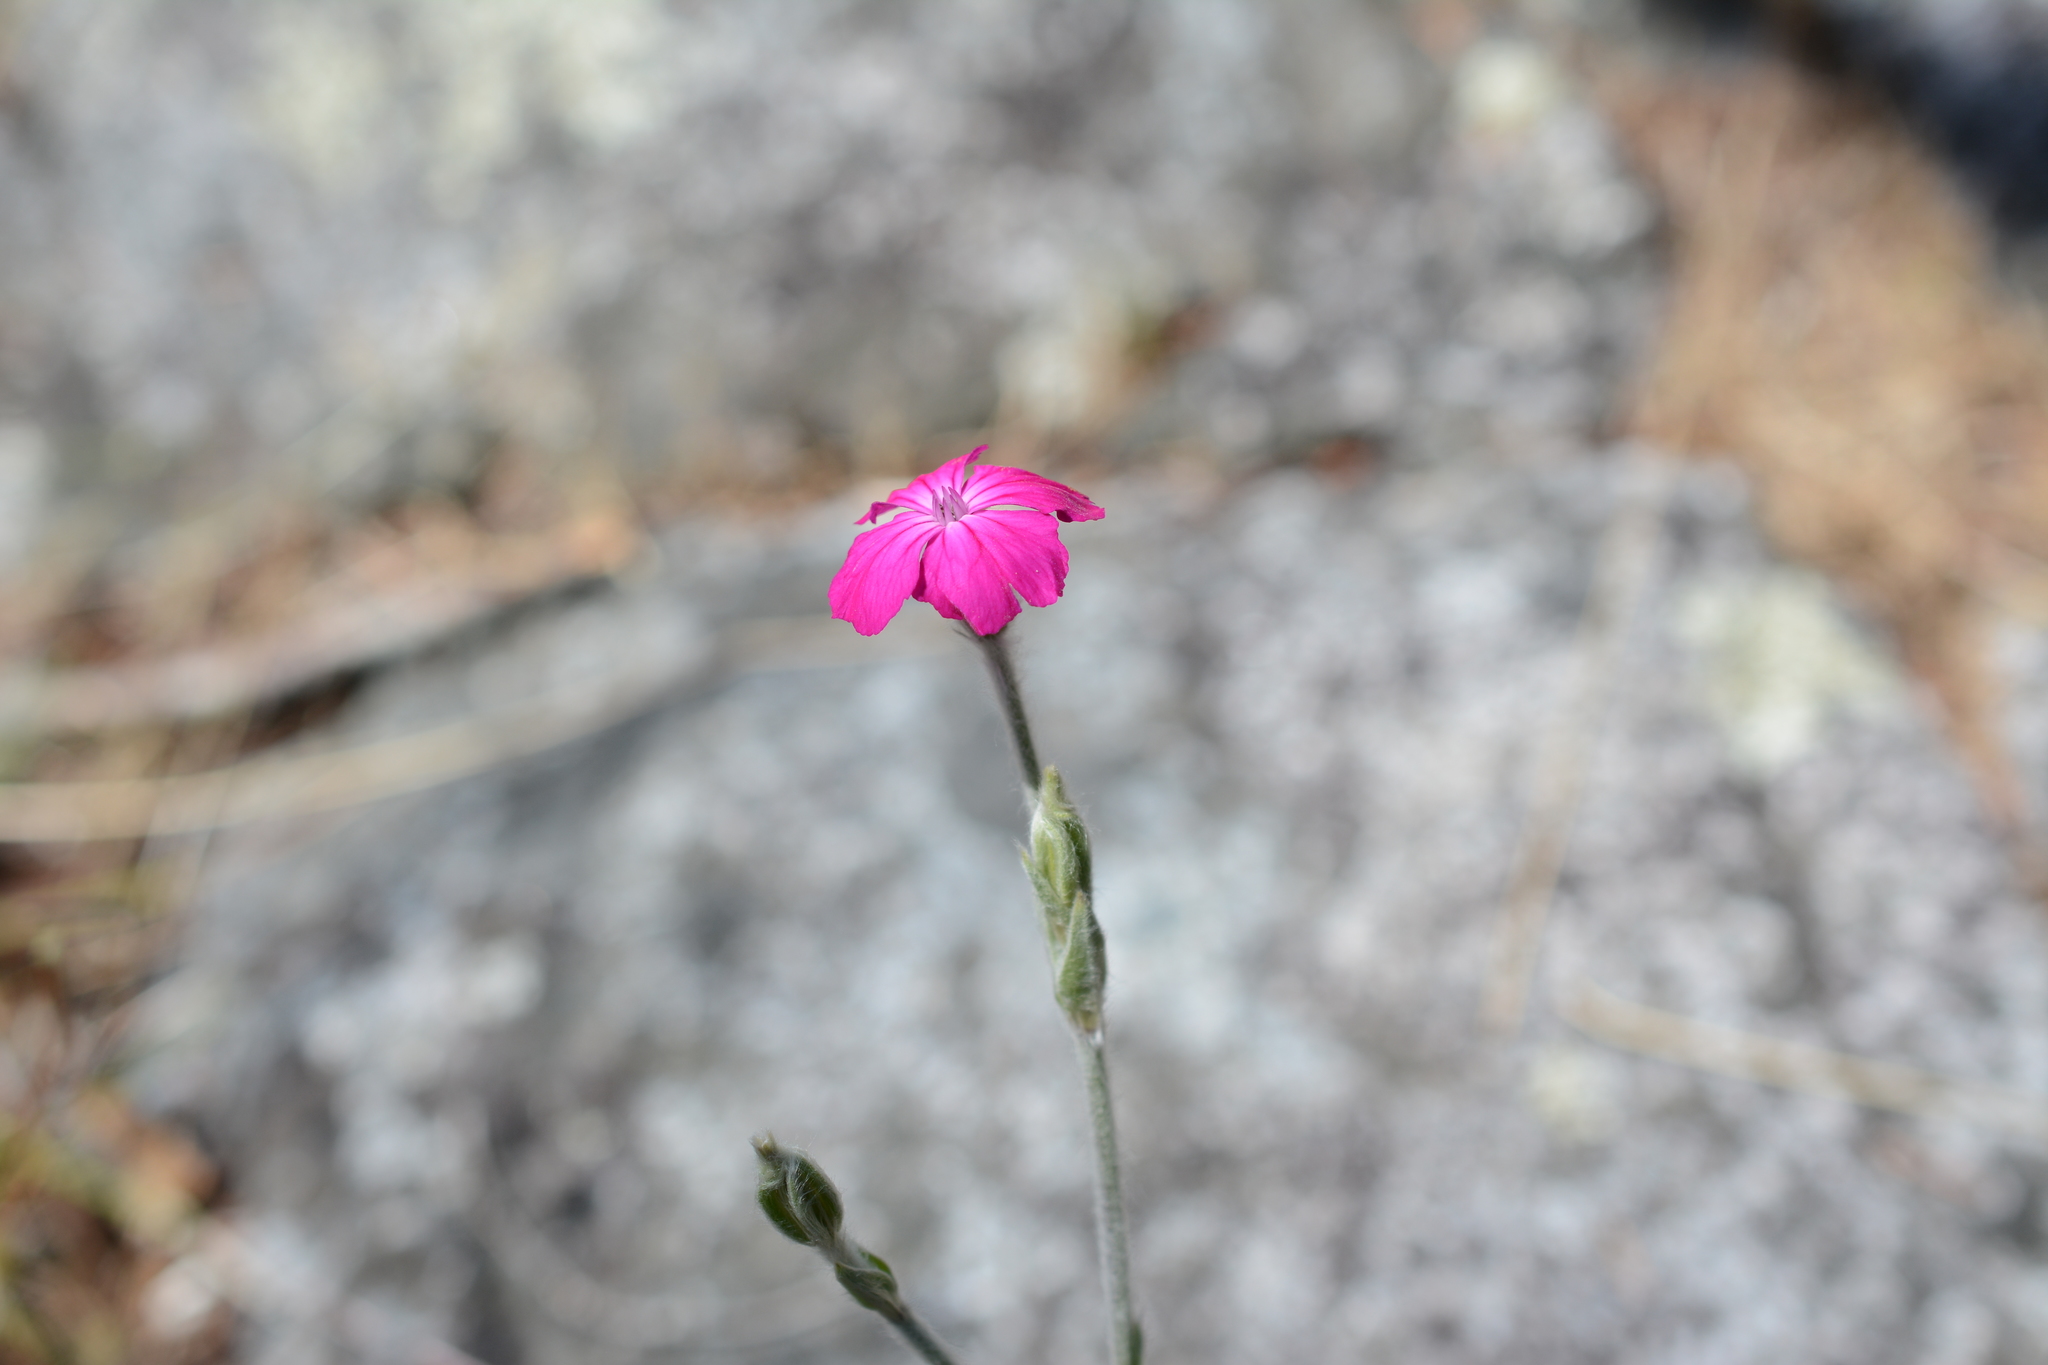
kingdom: Plantae
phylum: Tracheophyta
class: Magnoliopsida
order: Caryophyllales
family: Caryophyllaceae
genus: Silene
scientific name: Silene coronaria
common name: Rose campion
